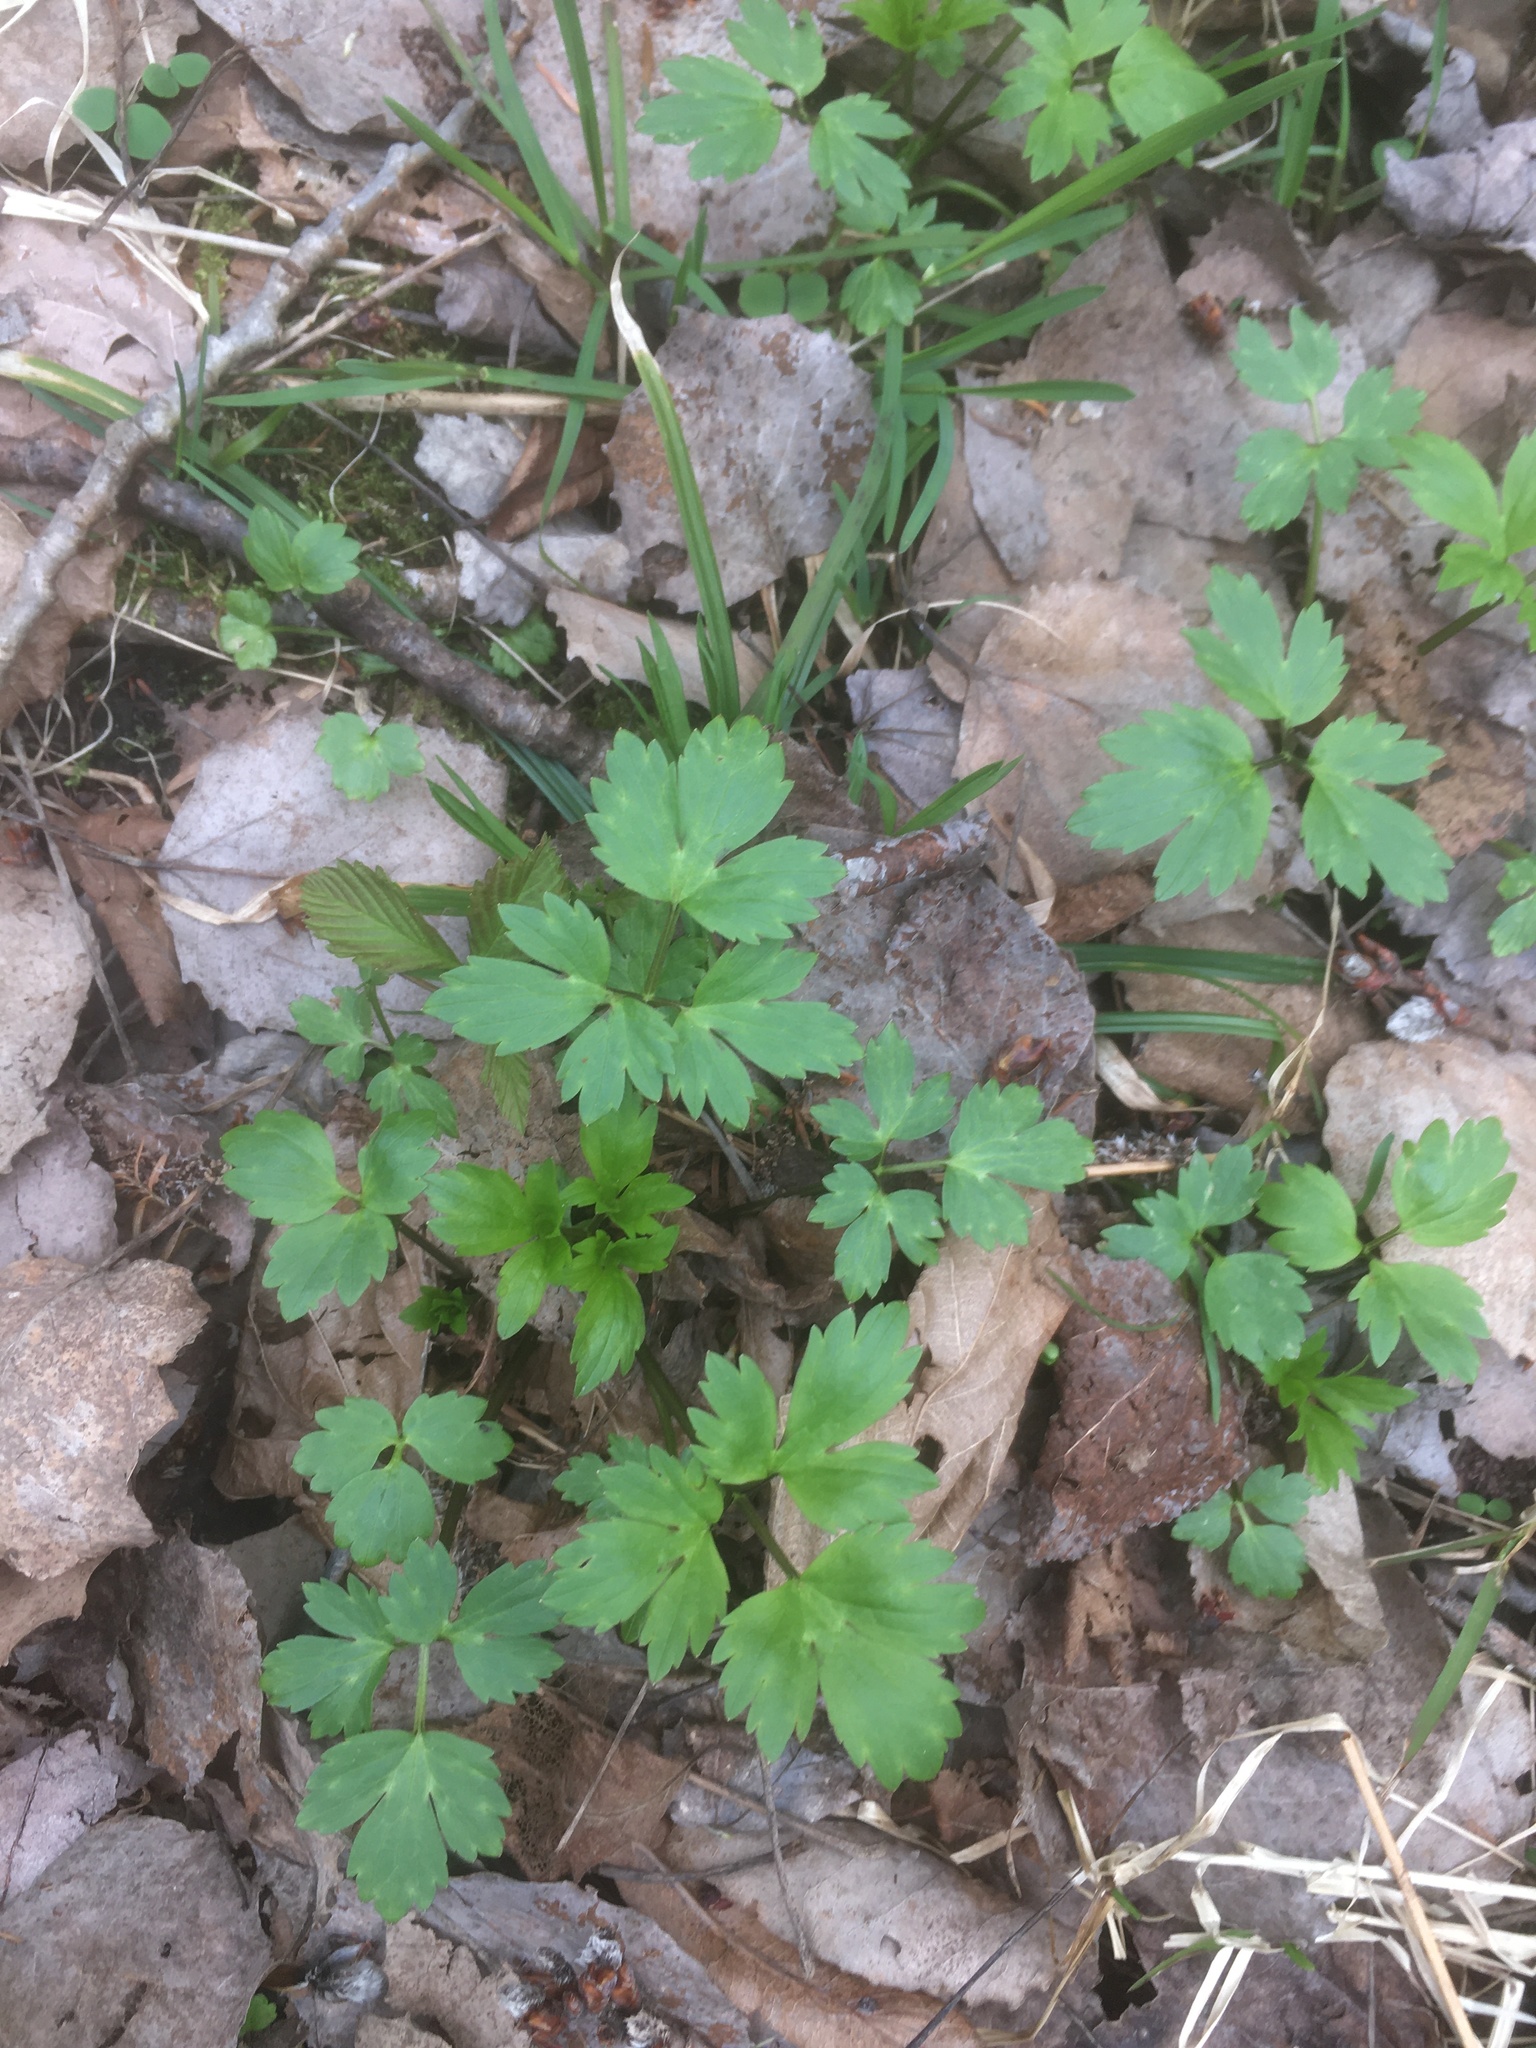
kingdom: Plantae
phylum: Tracheophyta
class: Magnoliopsida
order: Ranunculales
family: Ranunculaceae
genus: Ranunculus
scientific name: Ranunculus repens
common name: Creeping buttercup
